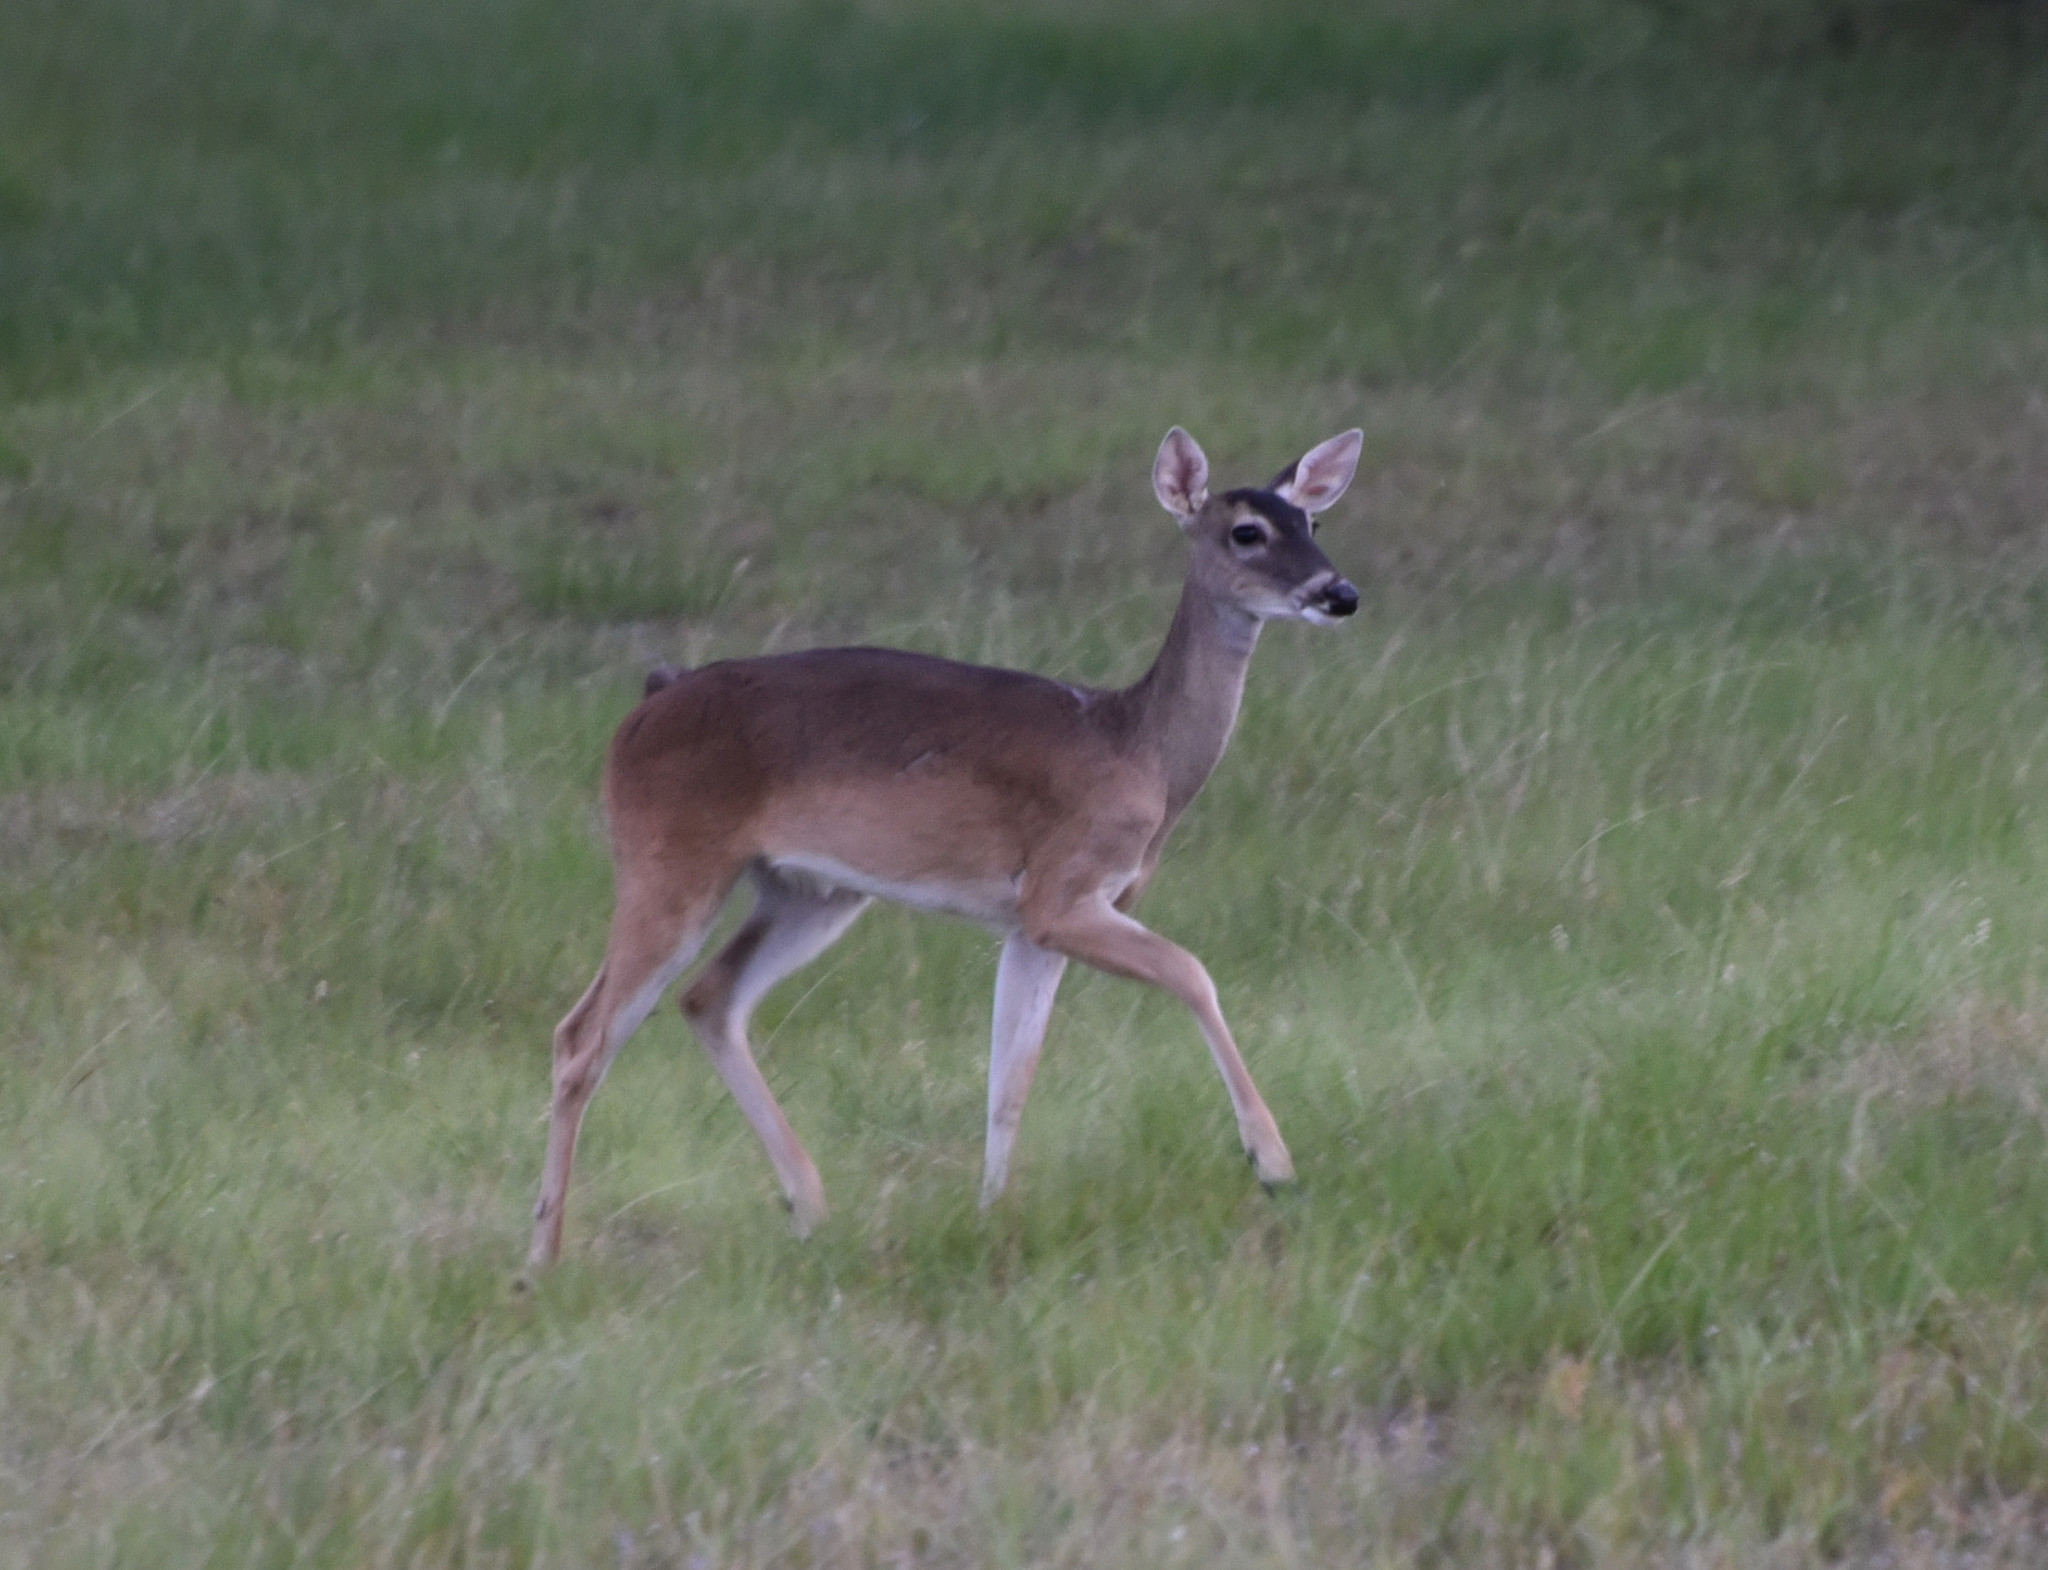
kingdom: Animalia
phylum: Chordata
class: Mammalia
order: Artiodactyla
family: Cervidae
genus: Odocoileus
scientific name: Odocoileus virginianus
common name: White-tailed deer
